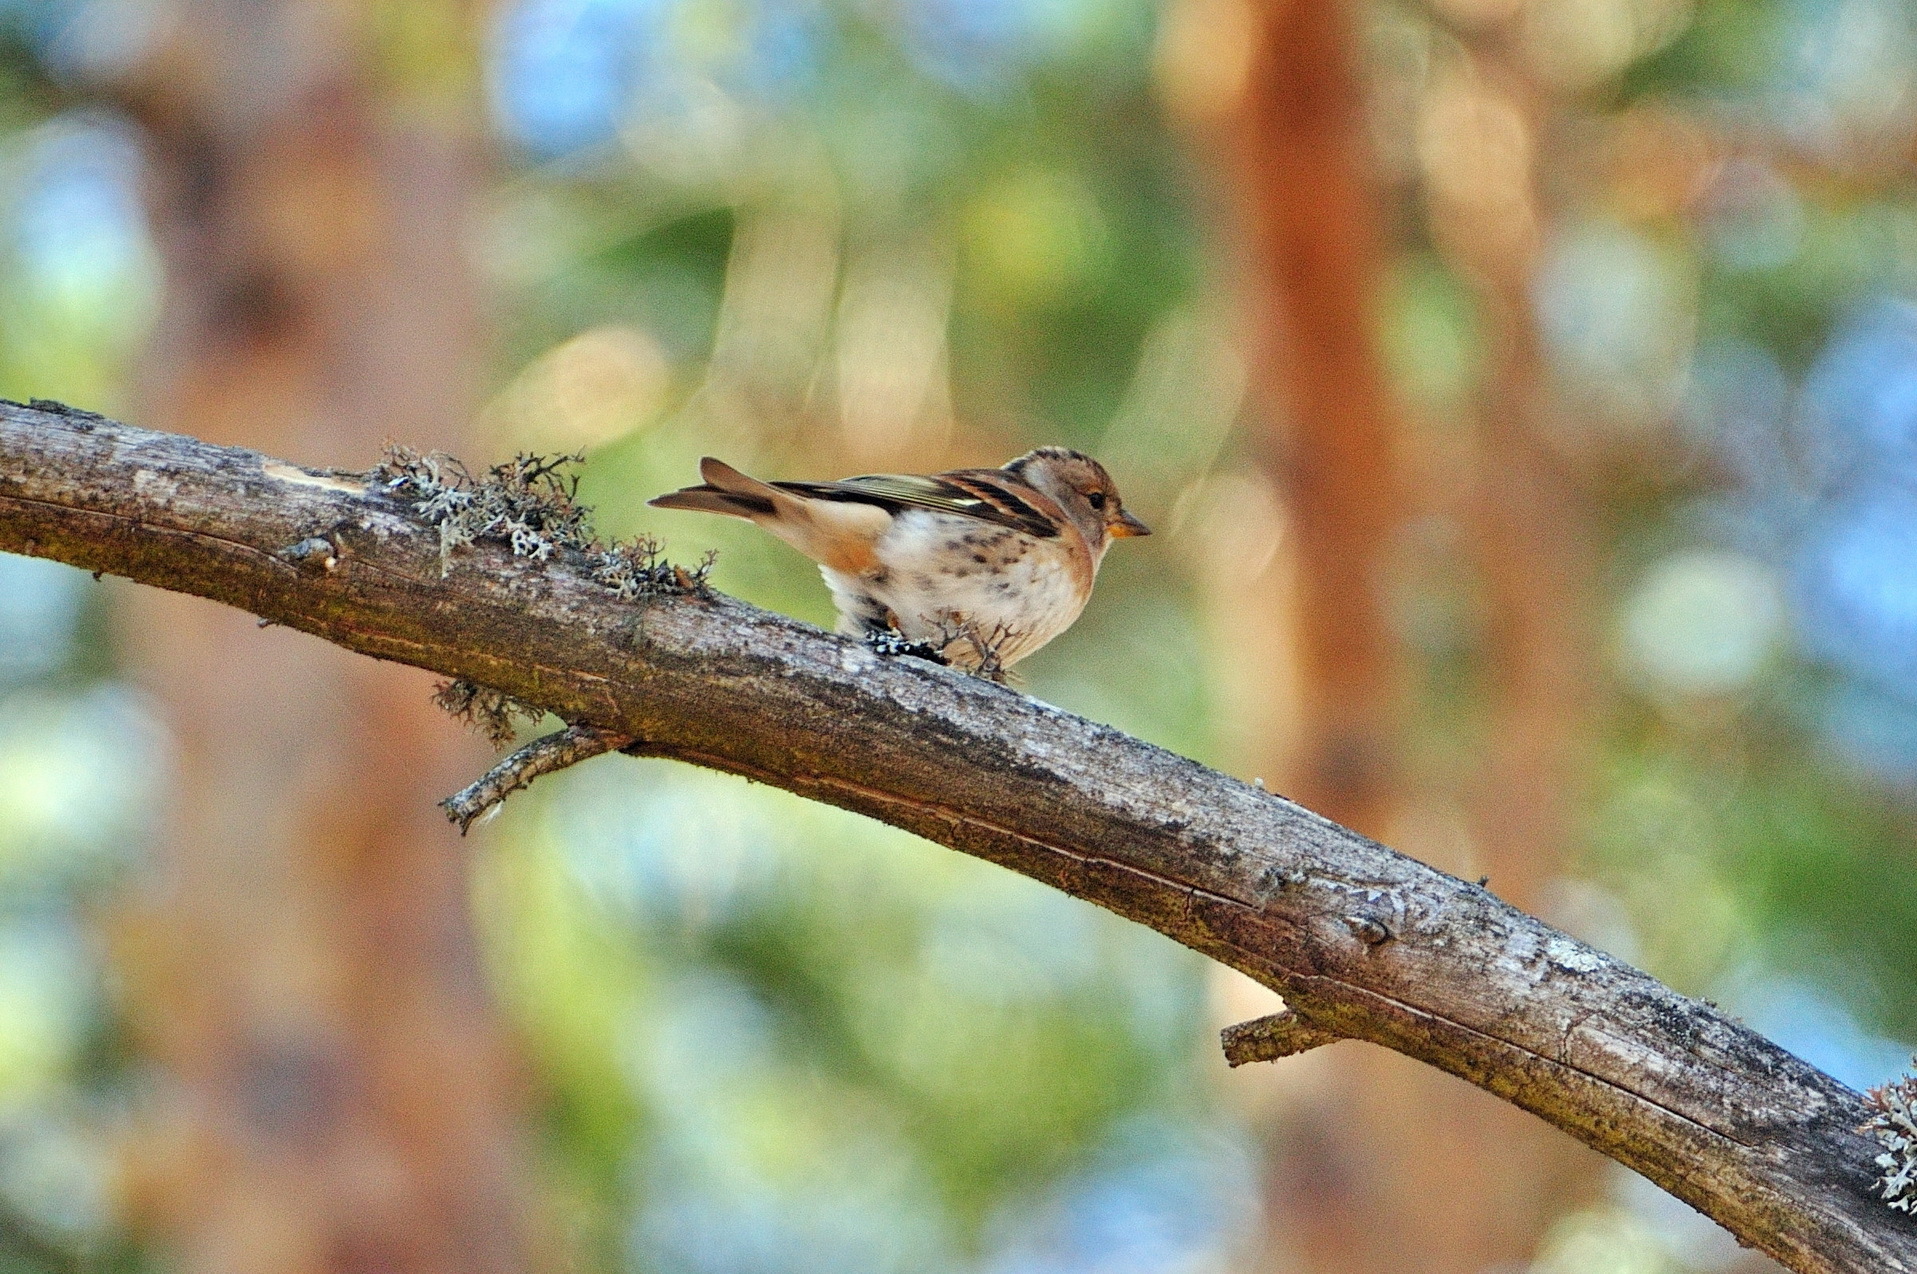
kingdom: Animalia
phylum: Chordata
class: Aves
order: Passeriformes
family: Fringillidae
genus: Fringilla
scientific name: Fringilla montifringilla
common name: Brambling
